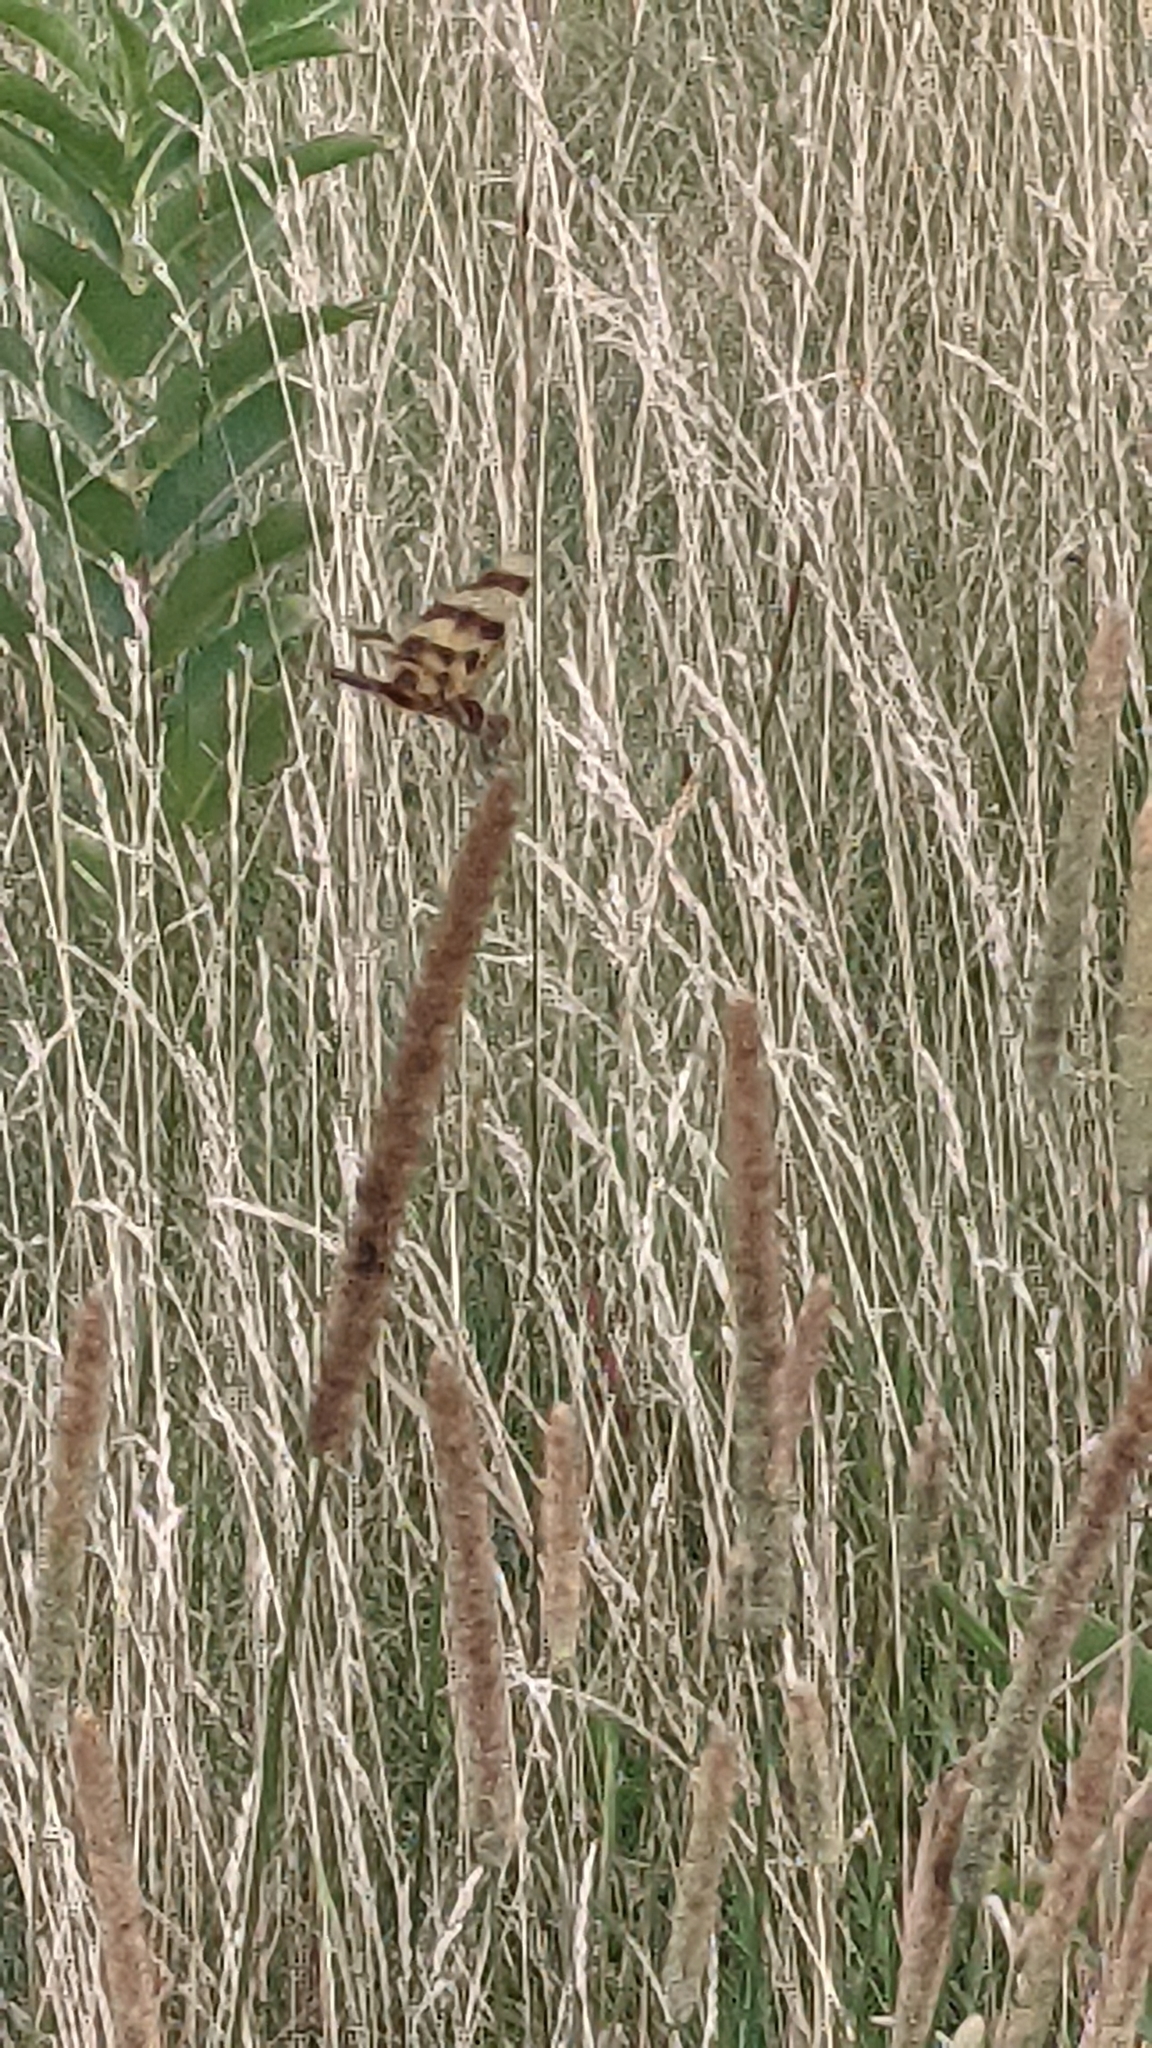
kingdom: Animalia
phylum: Arthropoda
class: Insecta
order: Odonata
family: Libellulidae
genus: Celithemis
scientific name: Celithemis eponina
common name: Halloween pennant
